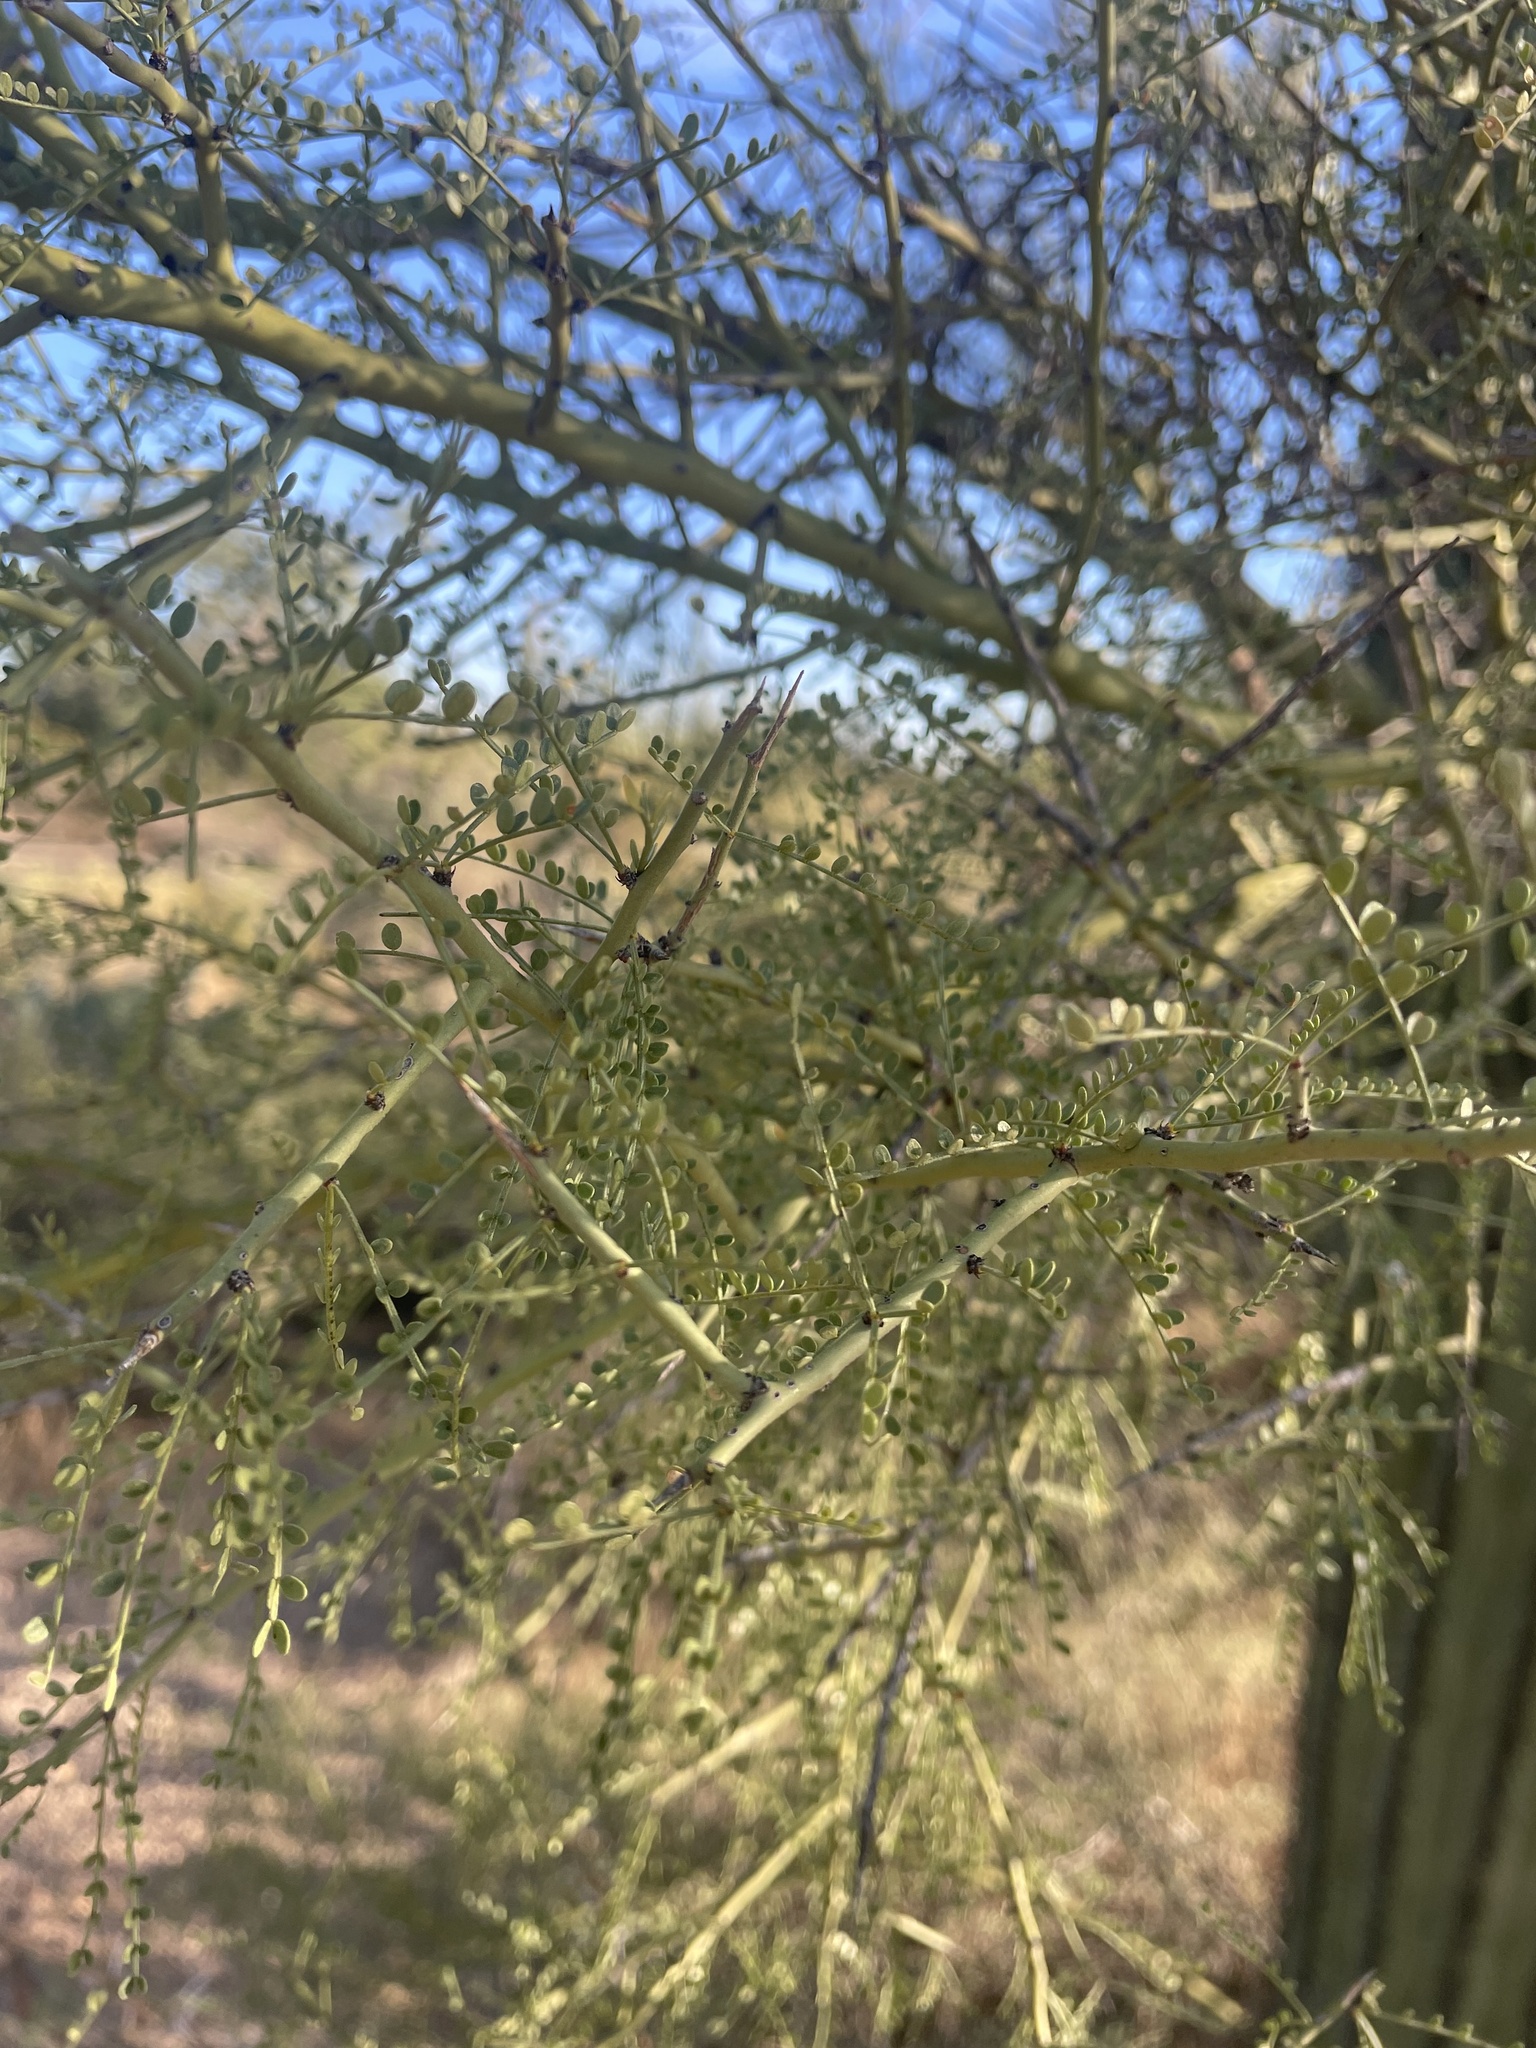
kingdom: Plantae
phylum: Tracheophyta
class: Magnoliopsida
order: Fabales
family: Fabaceae
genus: Parkinsonia
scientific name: Parkinsonia microphylla
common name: Yellow paloverde
